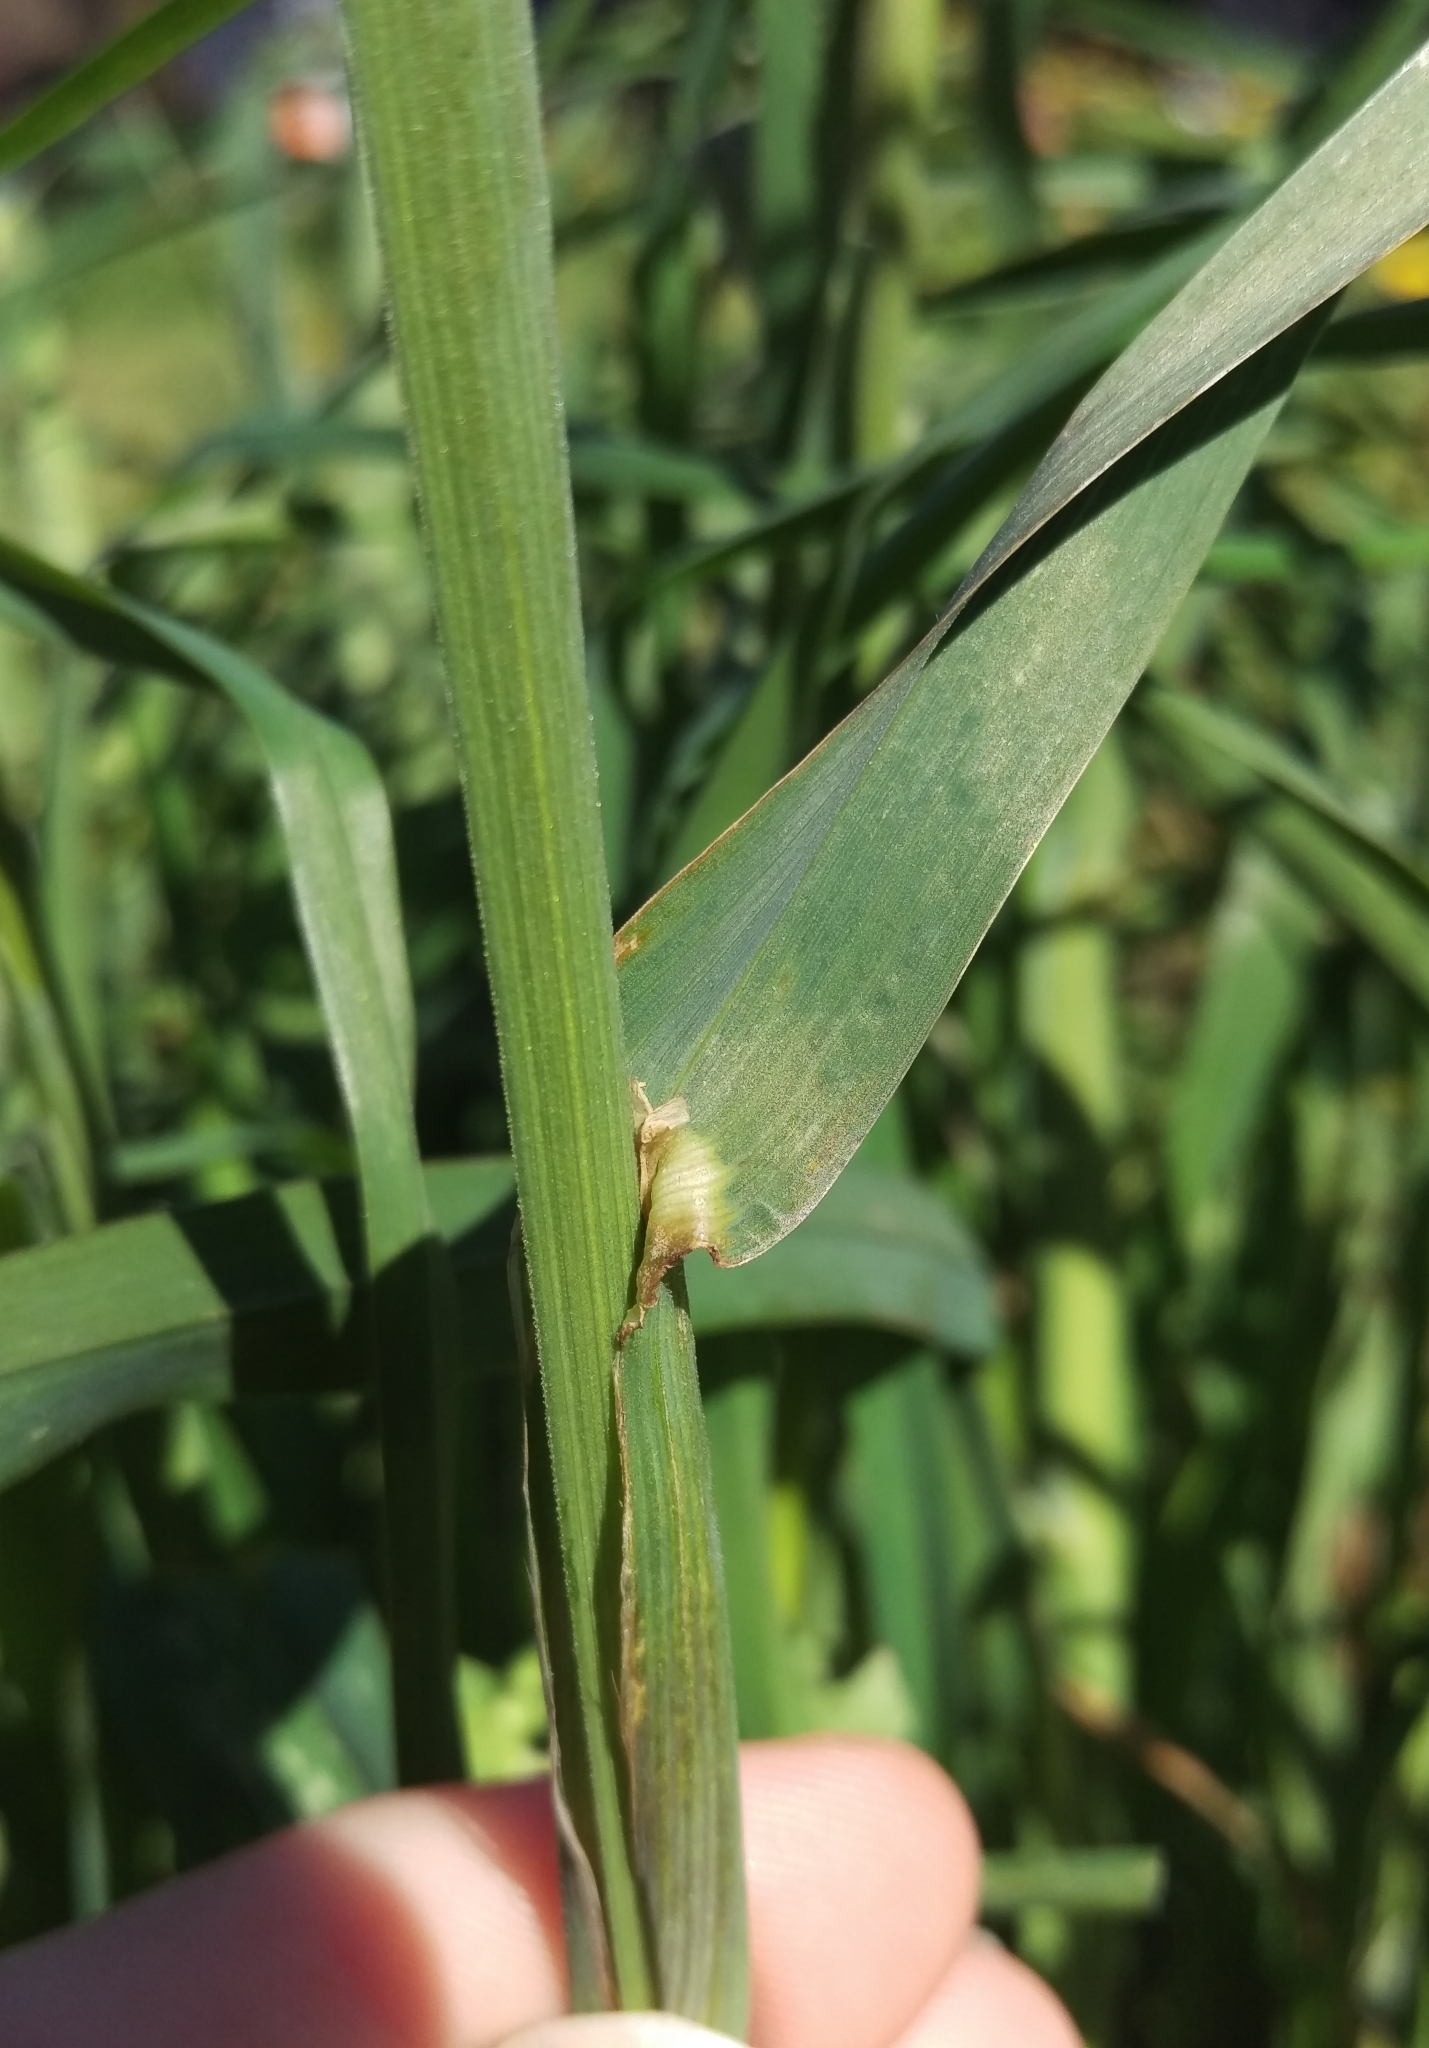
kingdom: Plantae
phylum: Tracheophyta
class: Liliopsida
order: Poales
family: Poaceae
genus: Dactylis
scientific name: Dactylis glomerata
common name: Orchardgrass
